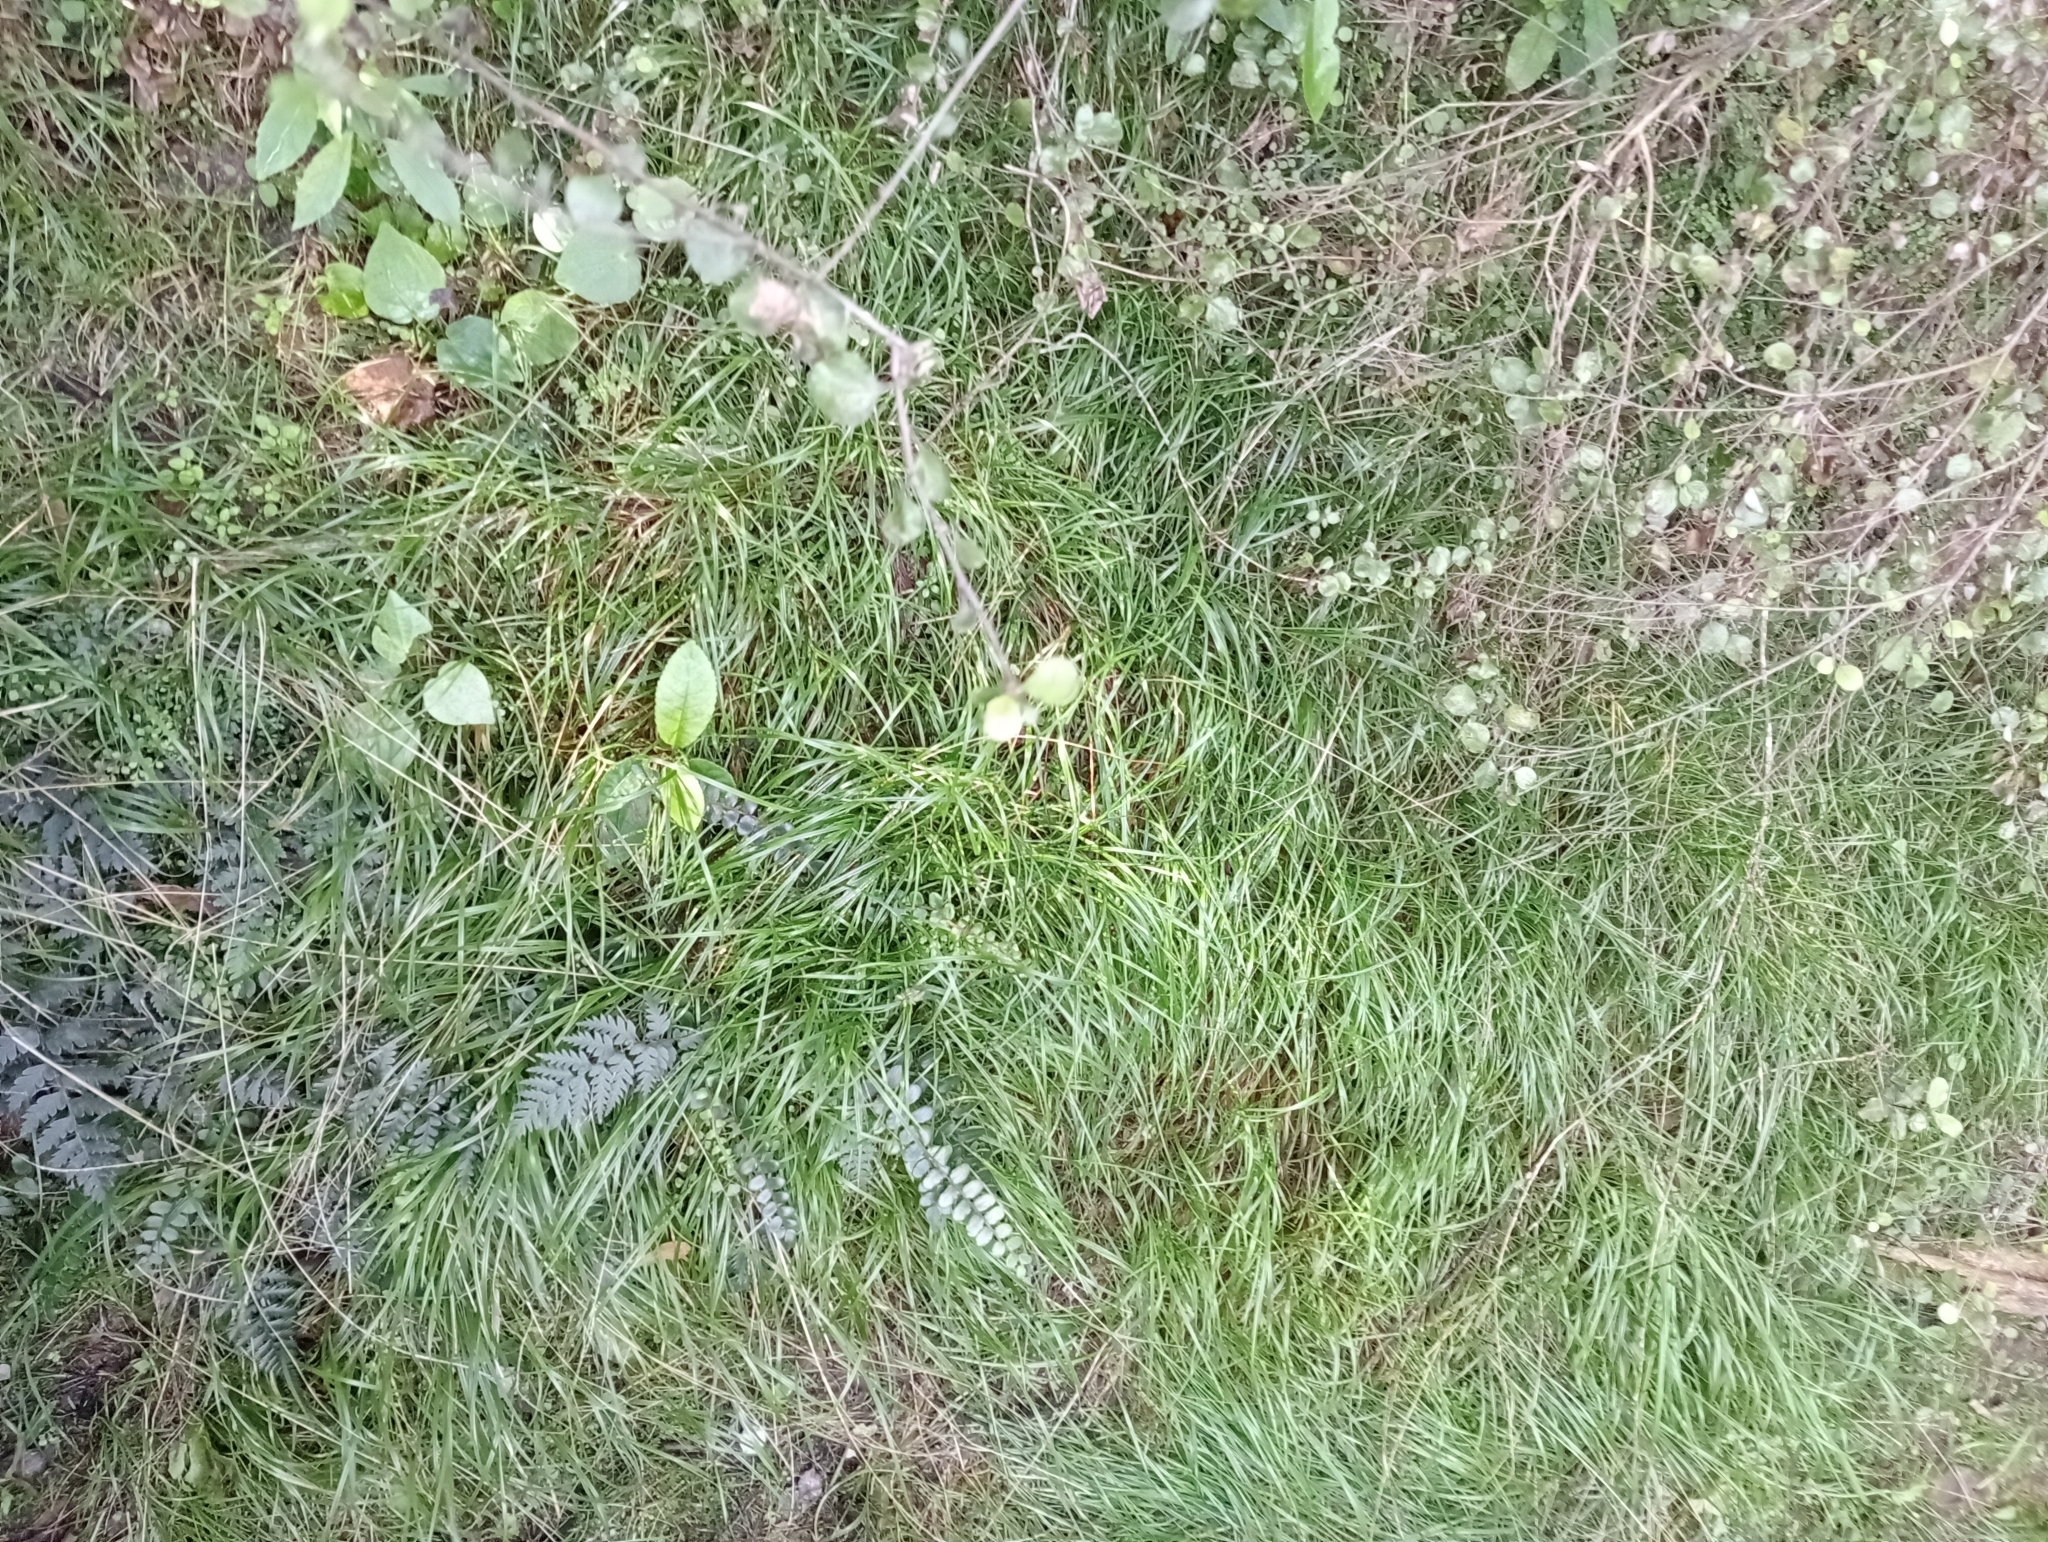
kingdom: Plantae
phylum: Tracheophyta
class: Liliopsida
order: Poales
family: Poaceae
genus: Poa
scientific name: Poa matthewsii
